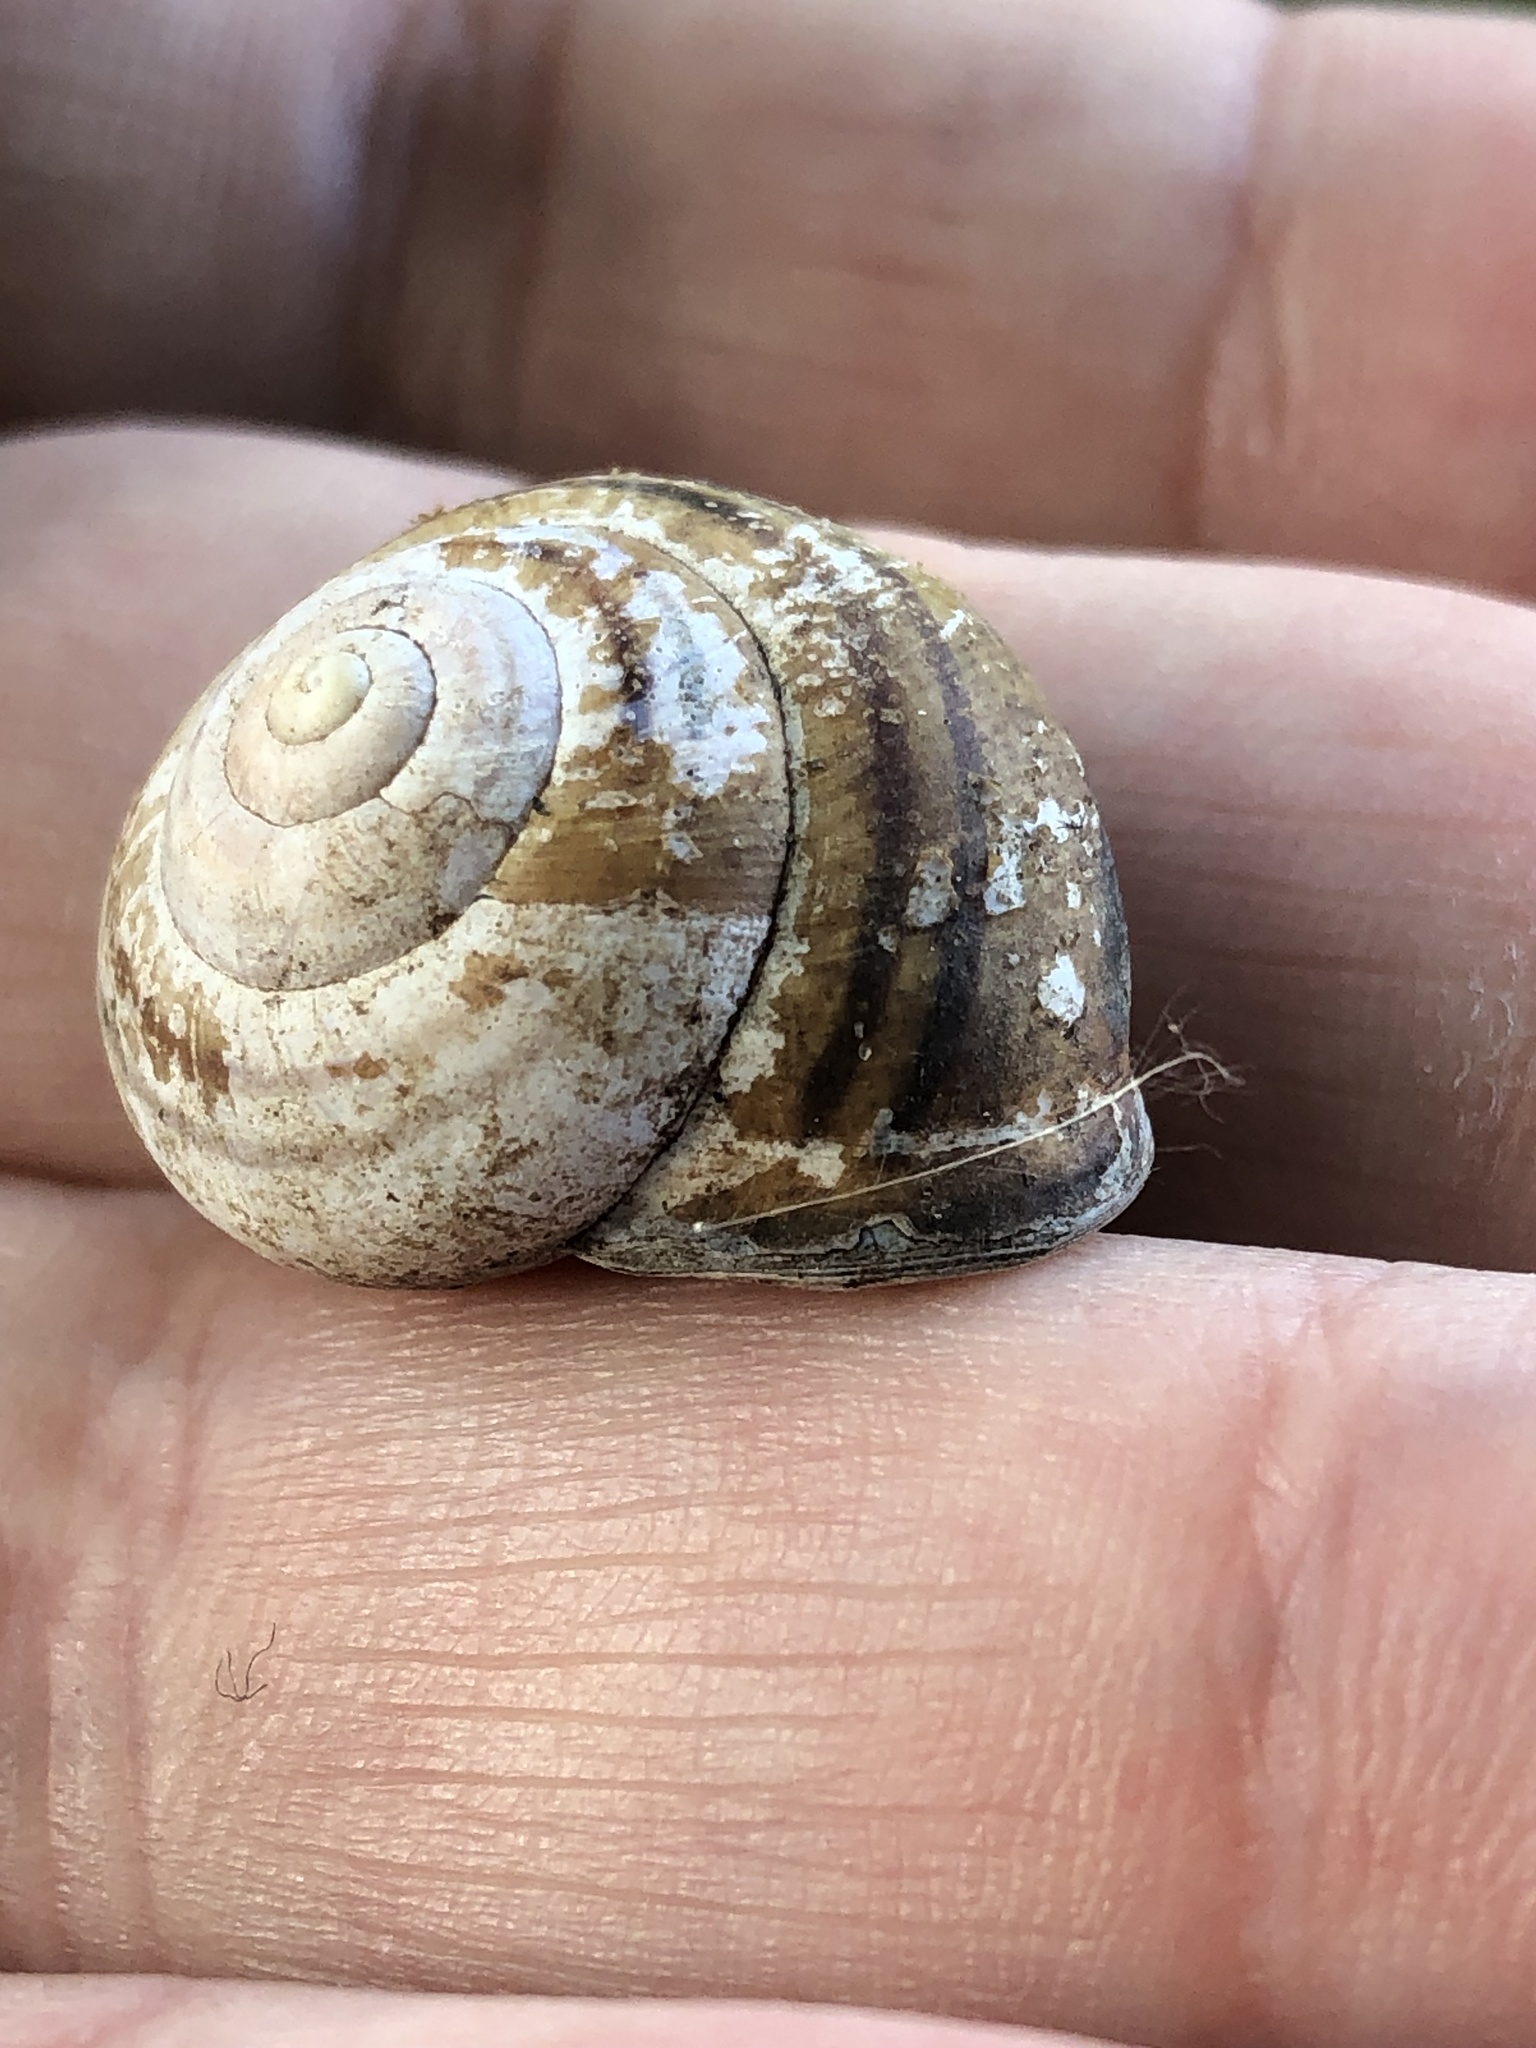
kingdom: Animalia
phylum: Mollusca
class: Gastropoda
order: Stylommatophora
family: Helicidae
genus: Cepaea
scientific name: Cepaea nemoralis
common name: Grovesnail
